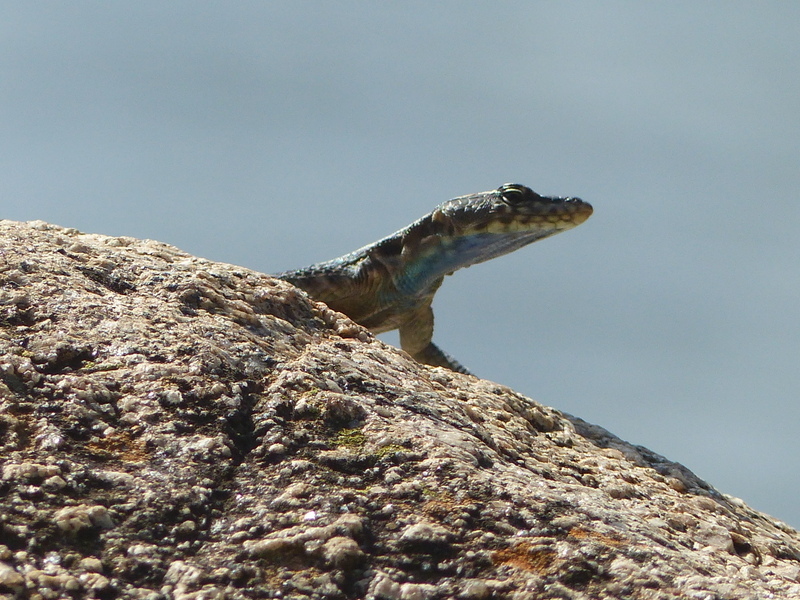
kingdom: Animalia
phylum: Chordata
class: Squamata
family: Cordylidae
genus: Platysaurus
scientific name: Platysaurus intermedius
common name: Common flat lizard
